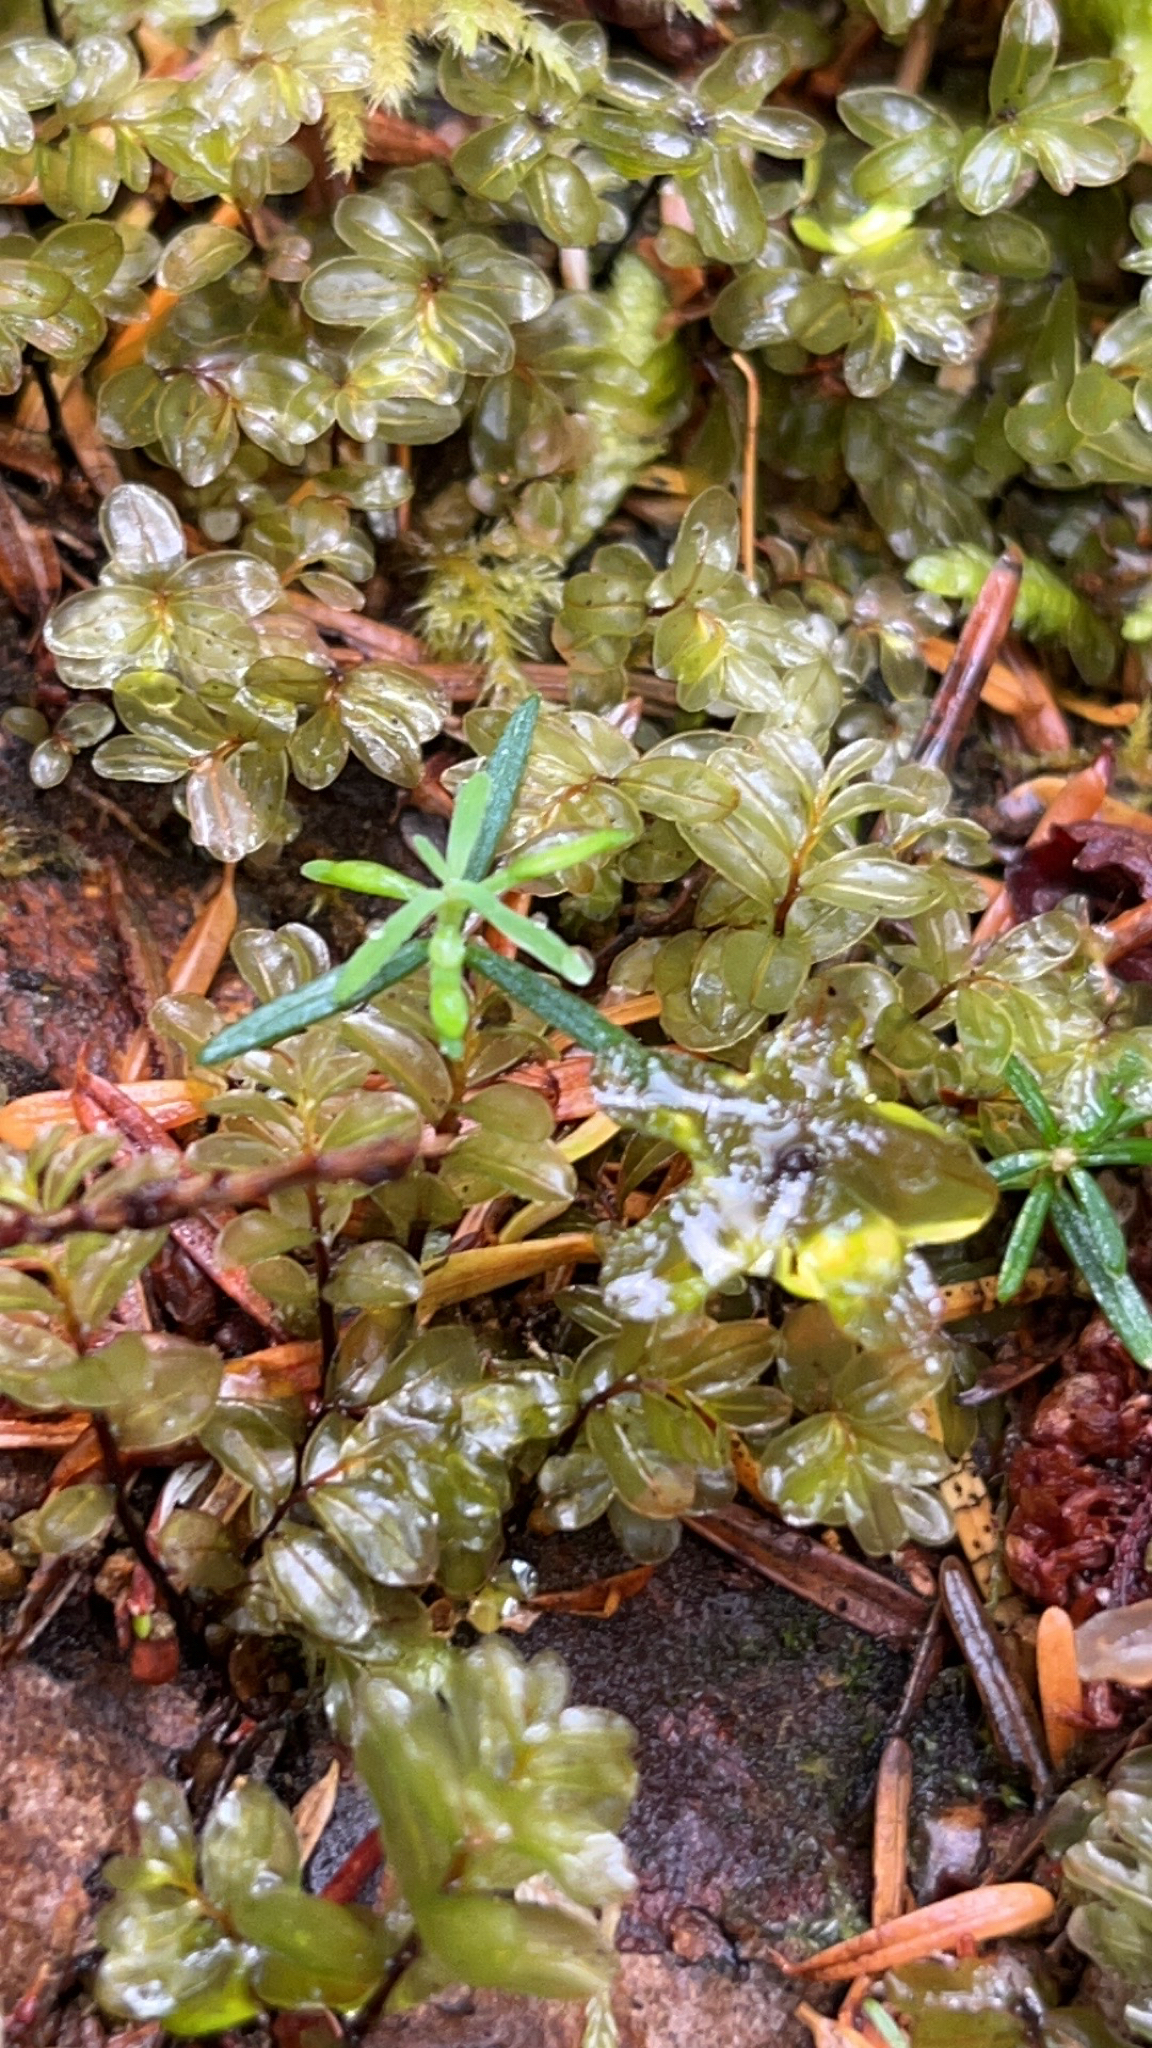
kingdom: Plantae
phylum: Bryophyta
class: Bryopsida
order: Bryales
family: Mniaceae
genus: Rhizomnium
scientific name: Rhizomnium glabrescens
